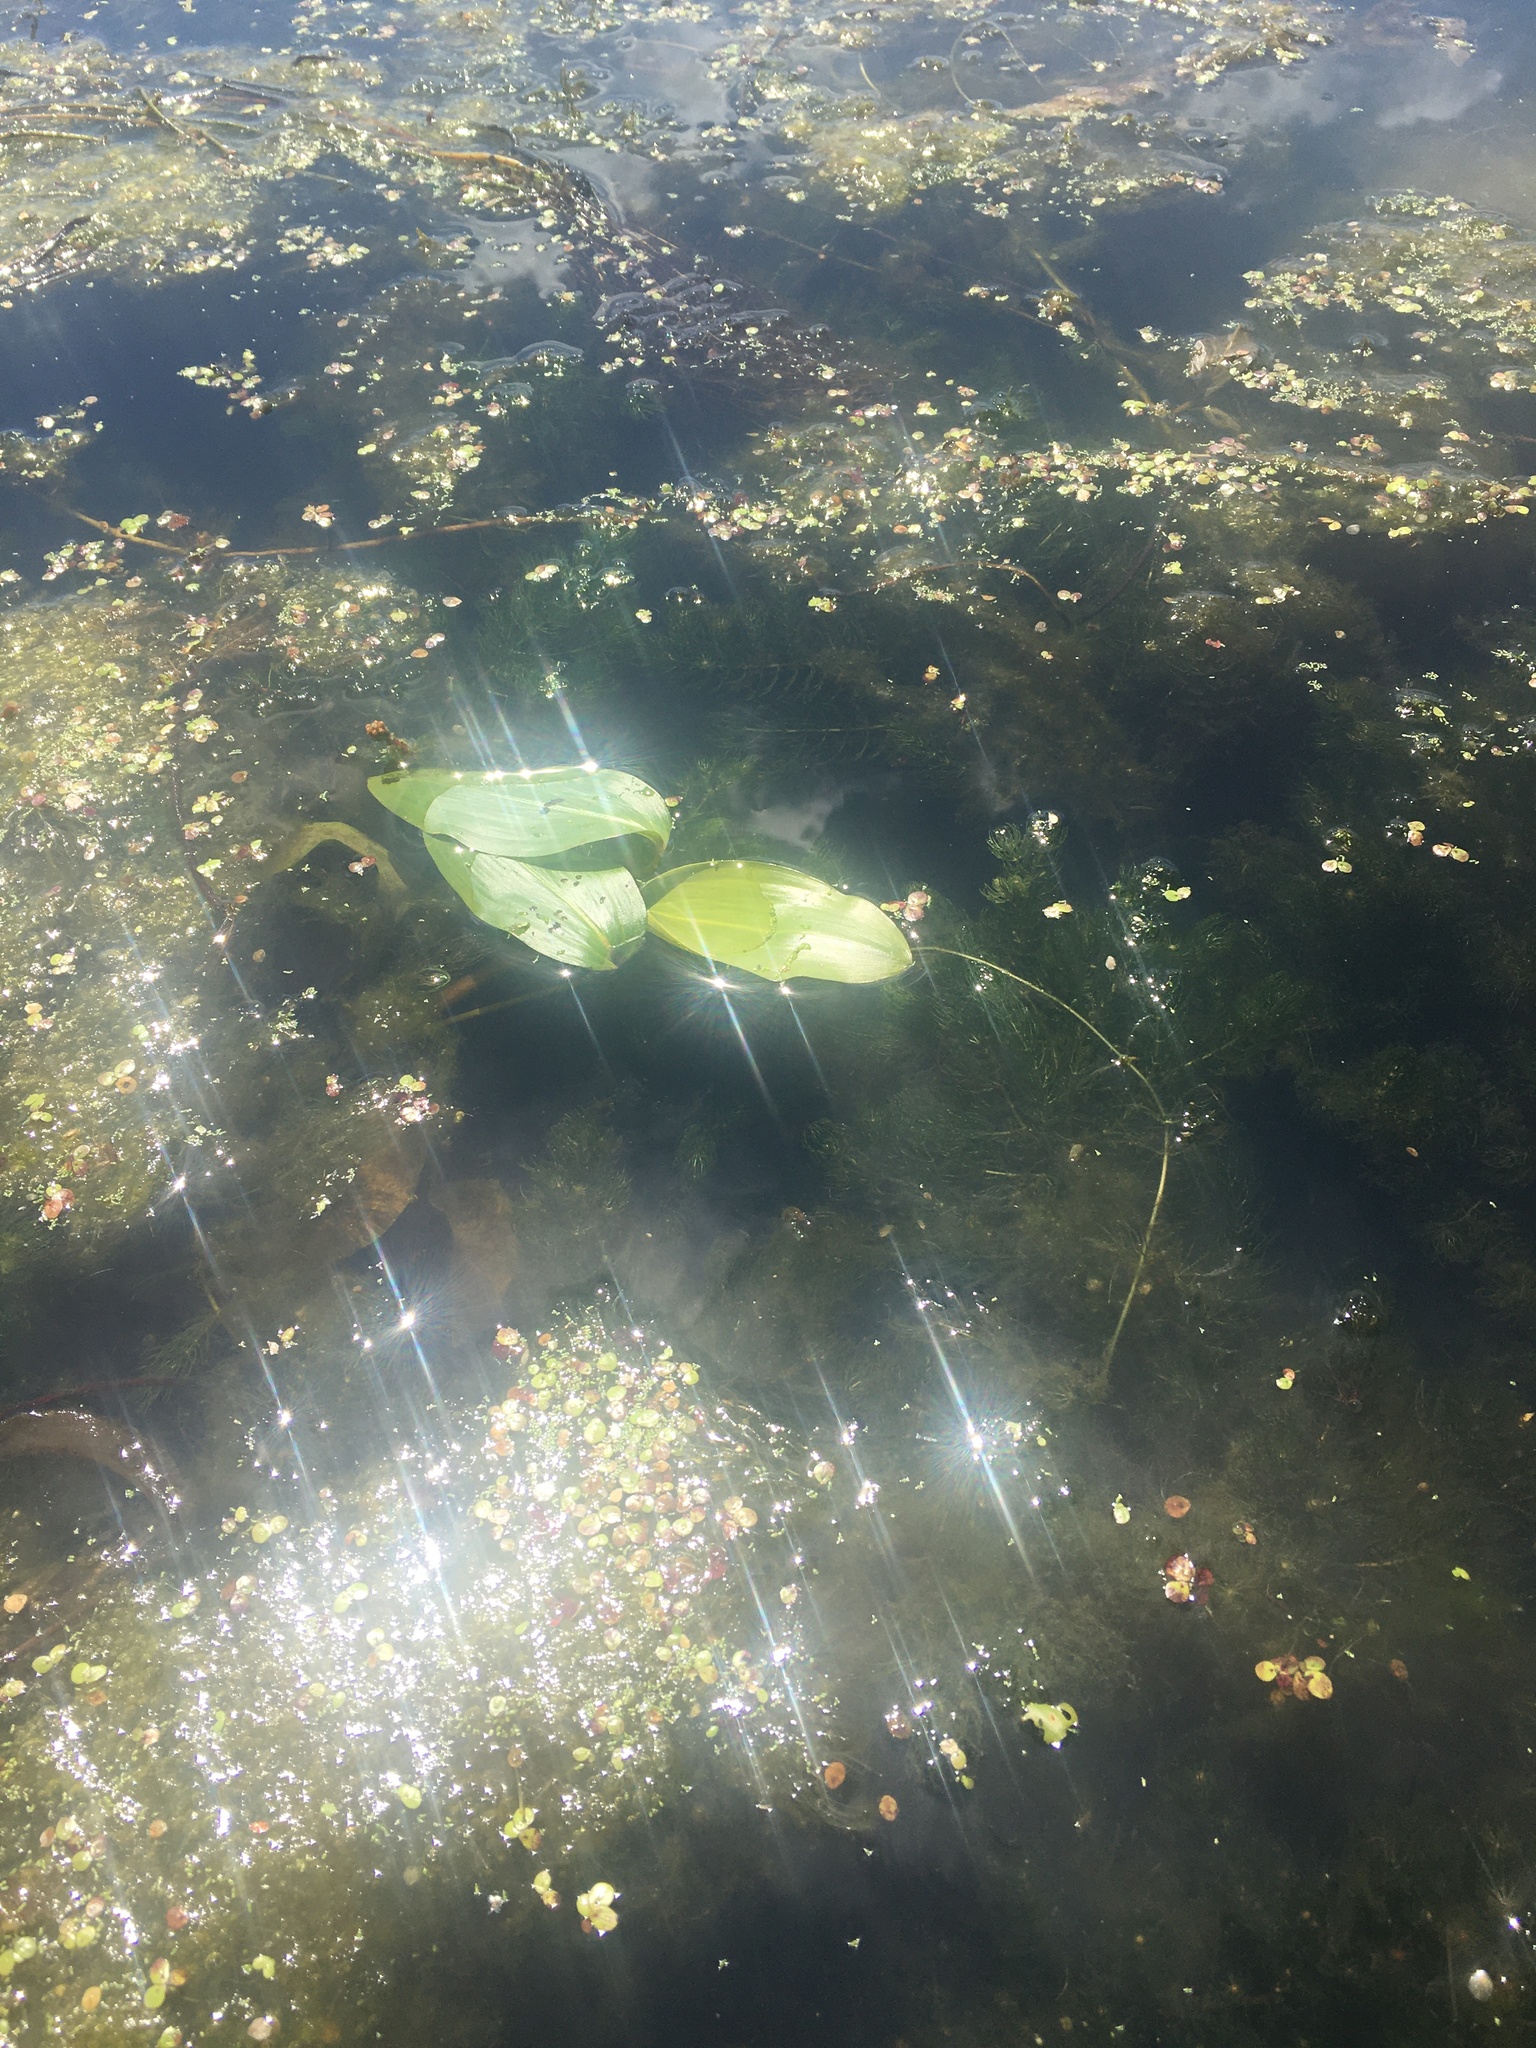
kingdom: Plantae
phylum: Tracheophyta
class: Liliopsida
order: Alismatales
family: Potamogetonaceae
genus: Potamogeton
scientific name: Potamogeton natans
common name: Broad-leaved pondweed
